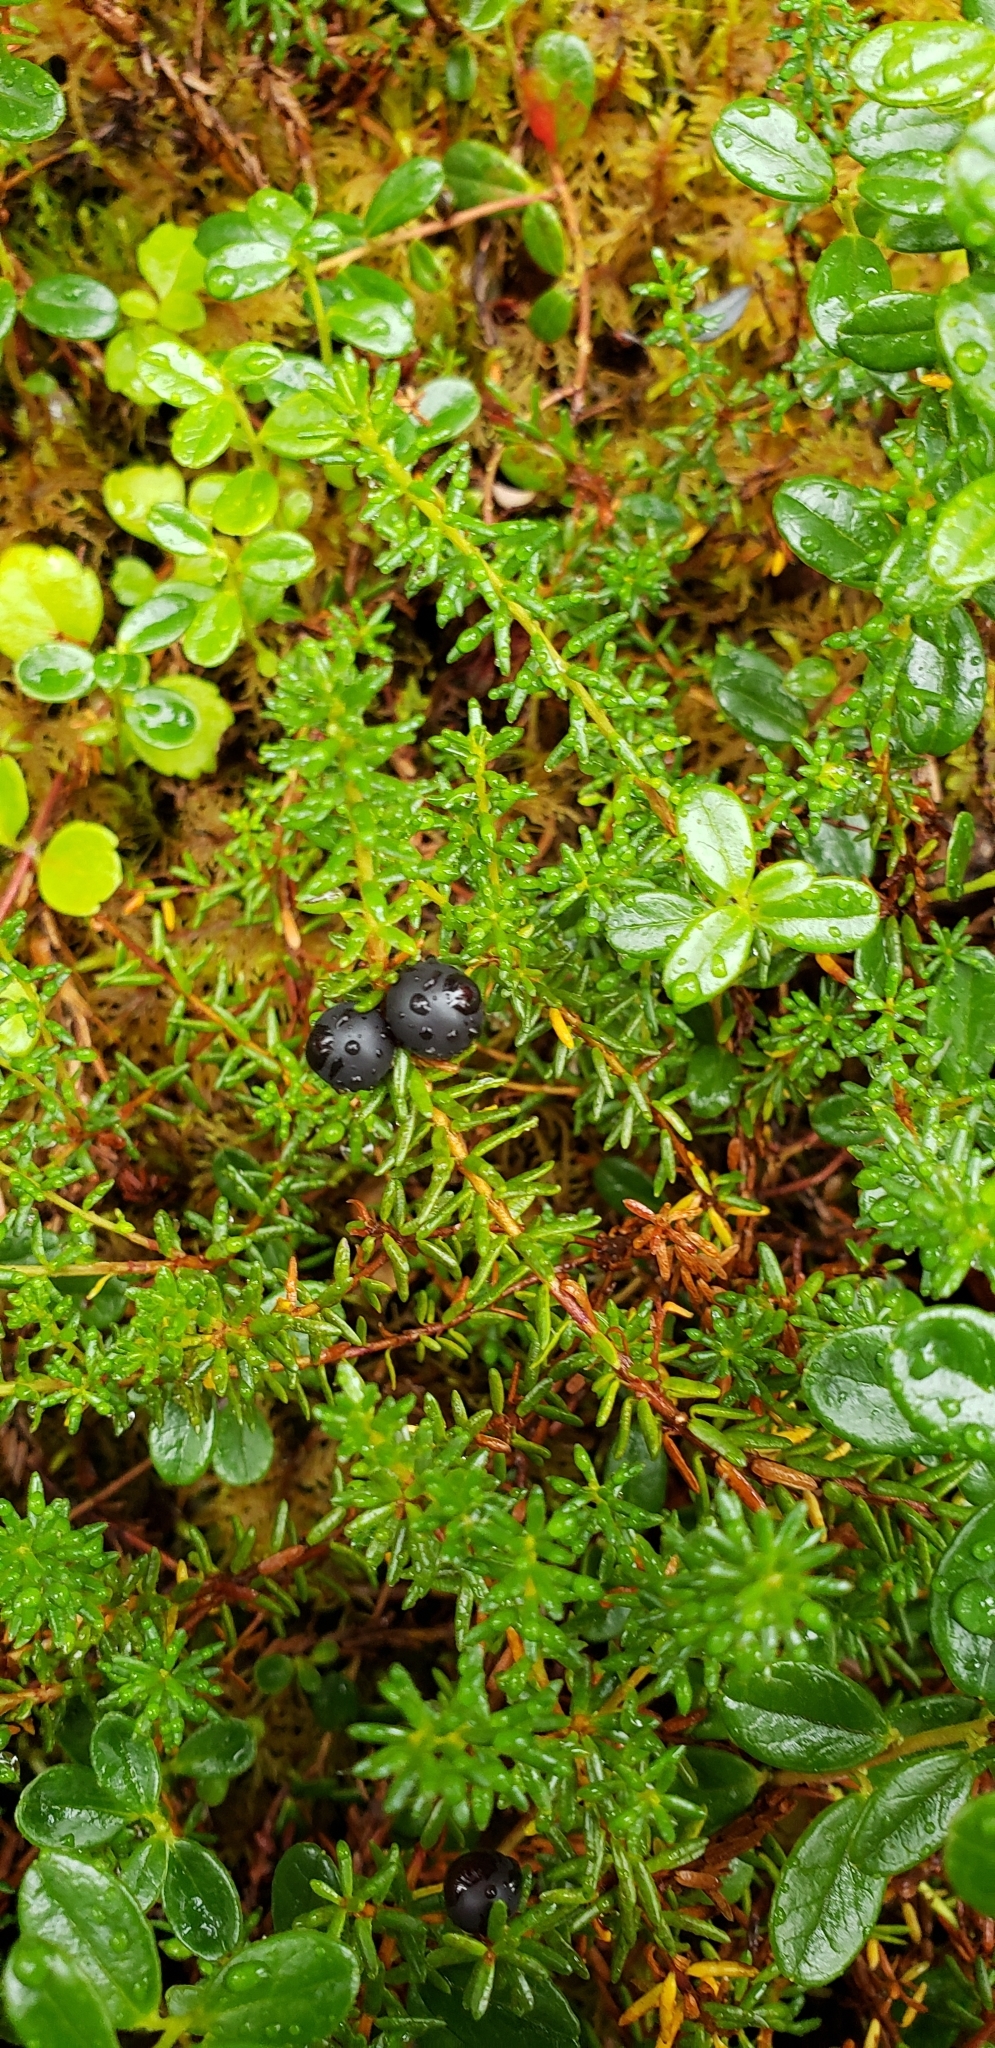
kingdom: Plantae
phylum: Tracheophyta
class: Magnoliopsida
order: Ericales
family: Ericaceae
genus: Empetrum
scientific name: Empetrum nigrum
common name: Black crowberry
